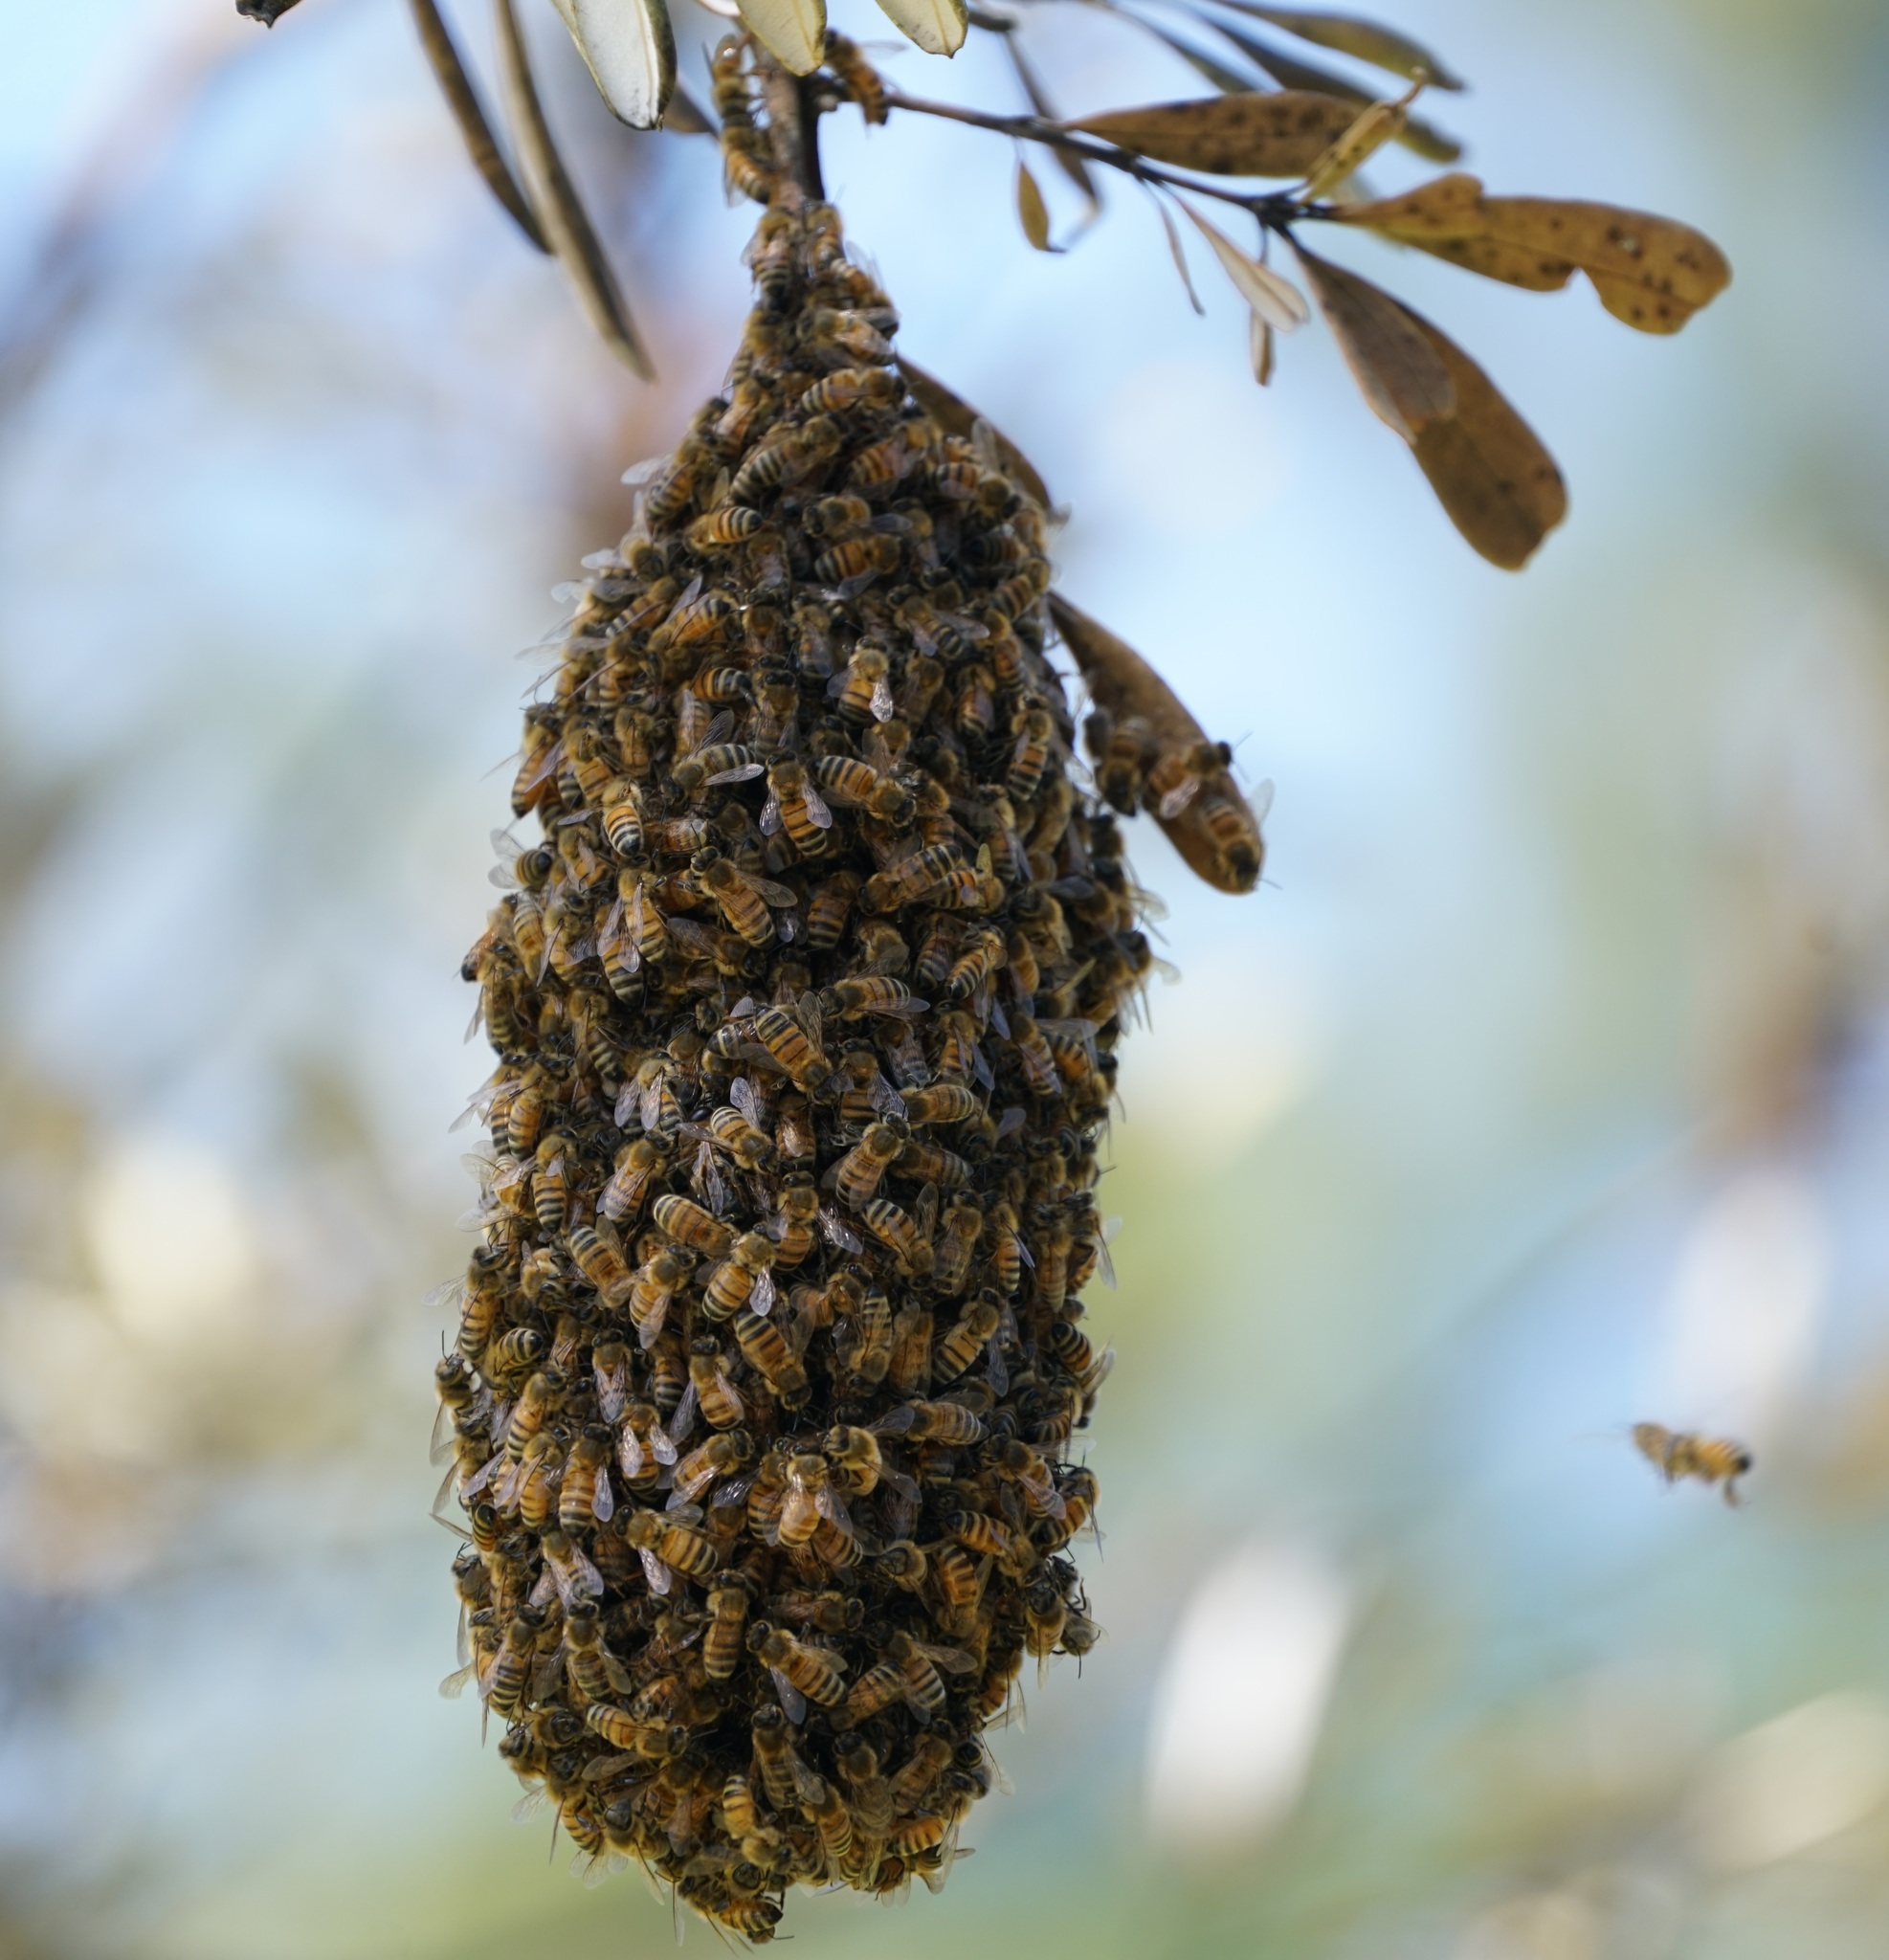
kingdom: Animalia
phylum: Arthropoda
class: Insecta
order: Hymenoptera
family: Apidae
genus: Apis
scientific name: Apis mellifera
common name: Honey bee
